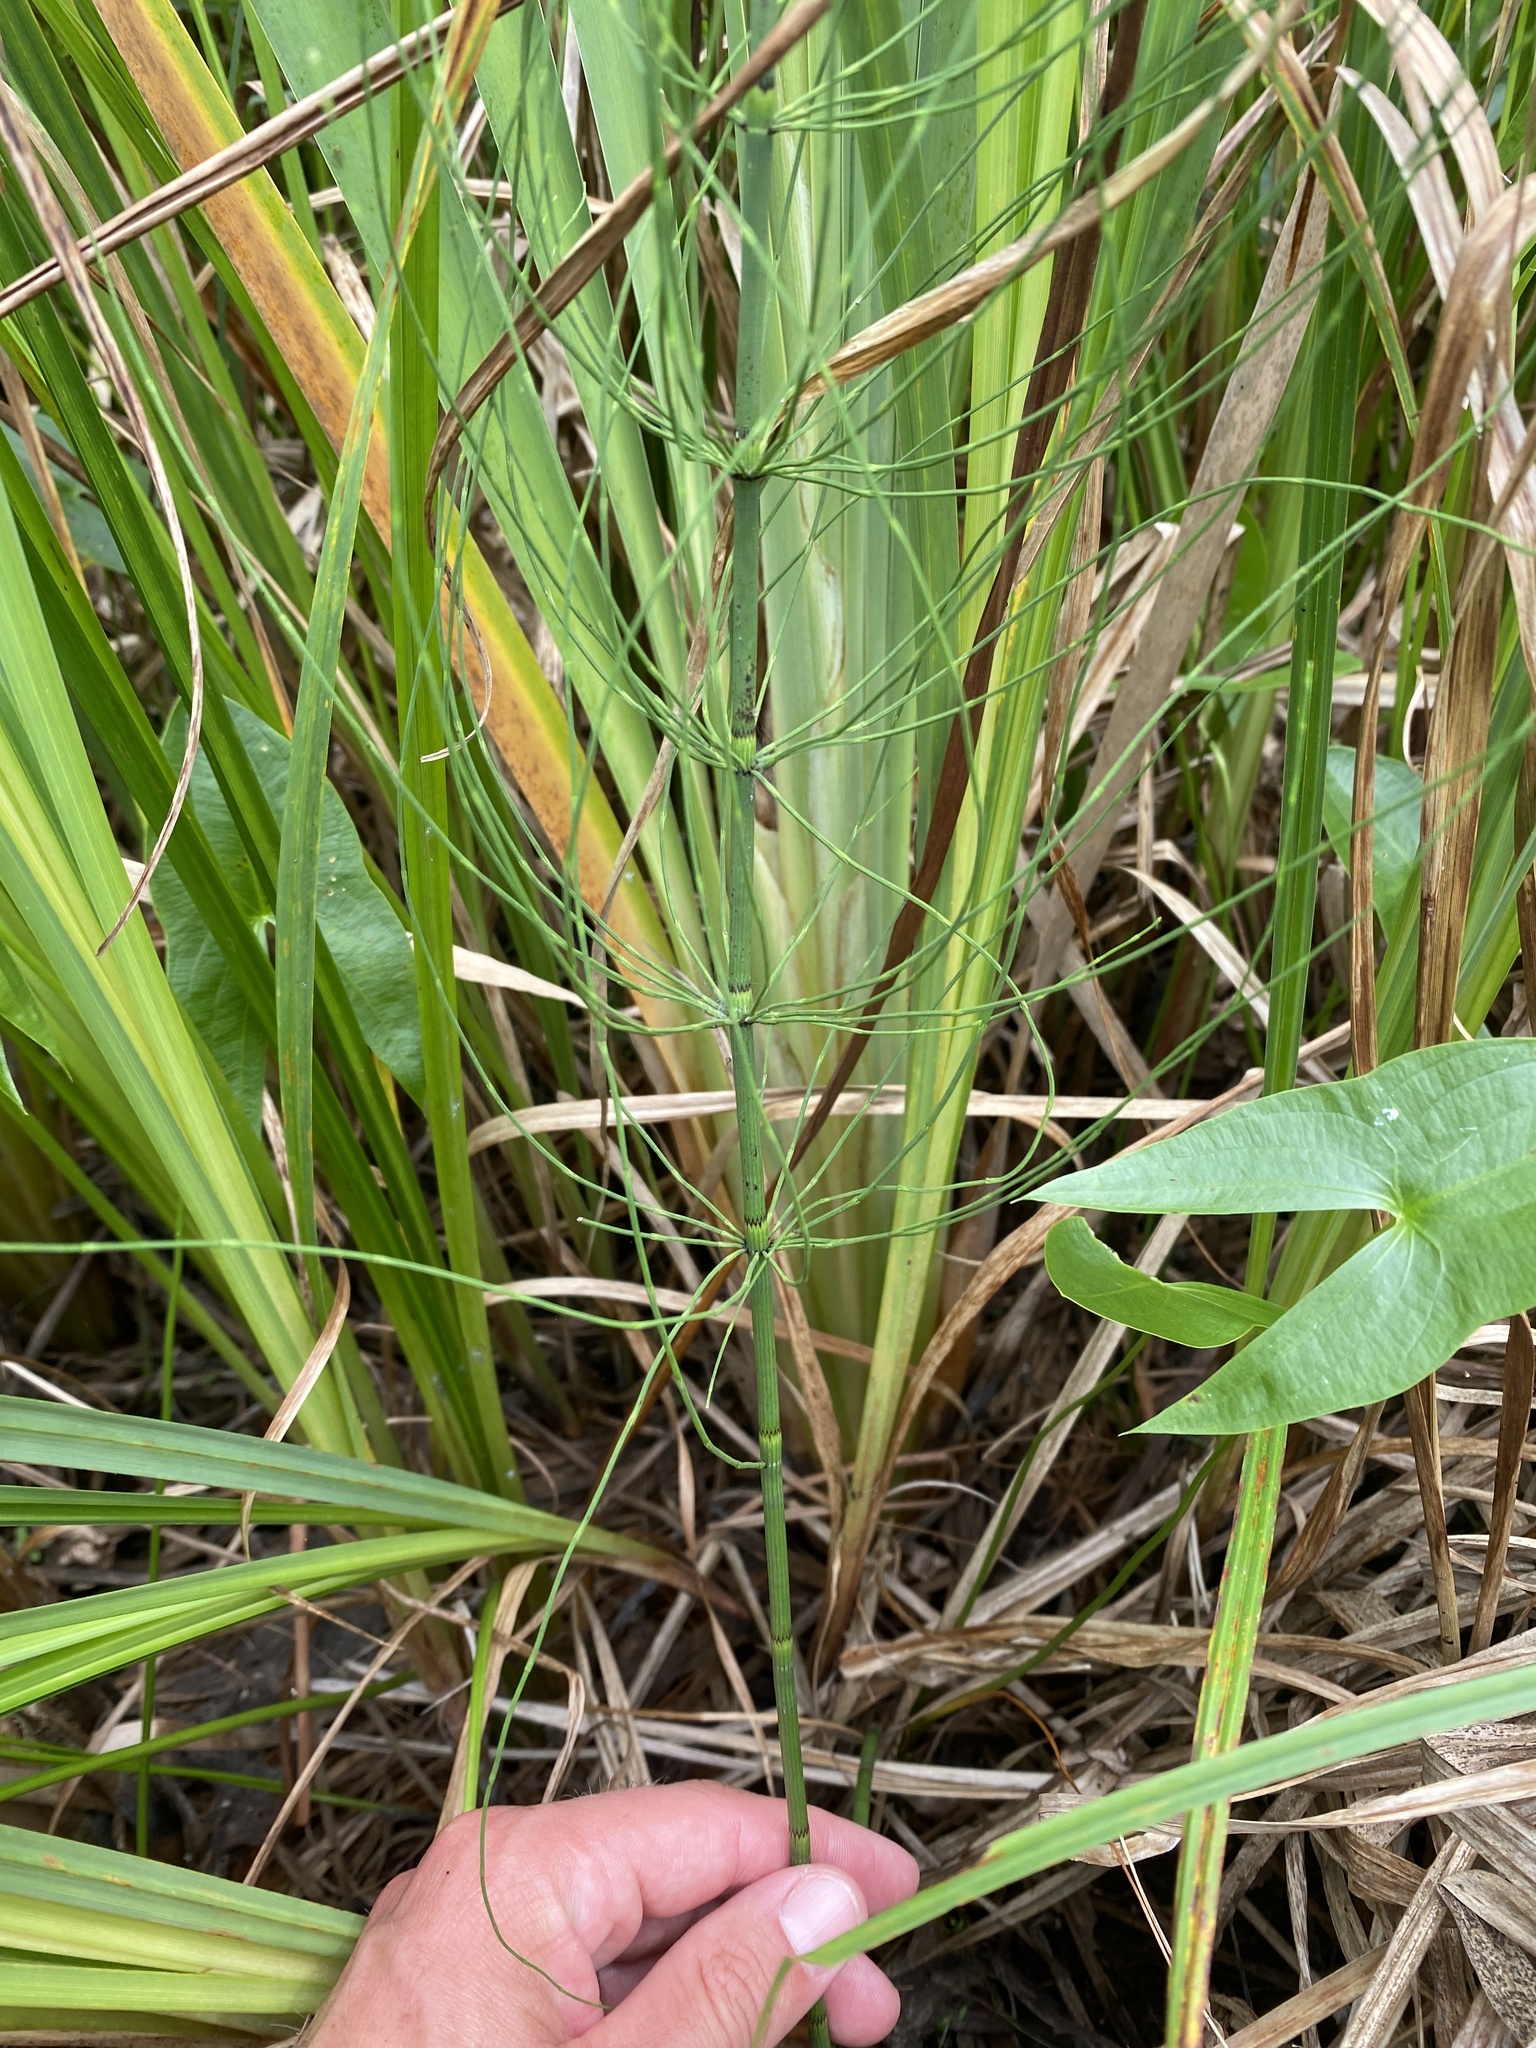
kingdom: Plantae
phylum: Tracheophyta
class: Polypodiopsida
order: Equisetales
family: Equisetaceae
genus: Equisetum
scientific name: Equisetum fluviatile
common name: Water horsetail
